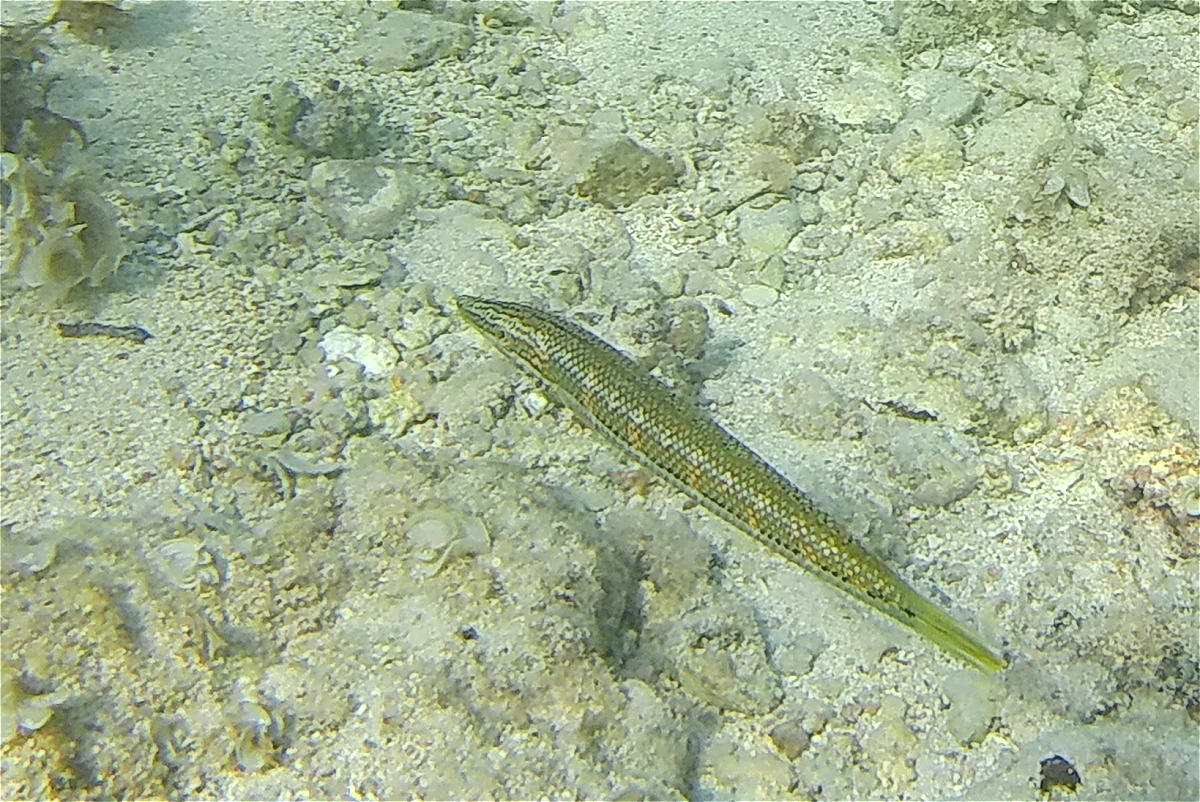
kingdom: Animalia
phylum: Chordata
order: Perciformes
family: Labridae
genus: Cheilio
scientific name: Cheilio inermis
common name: Cigar wrasse
